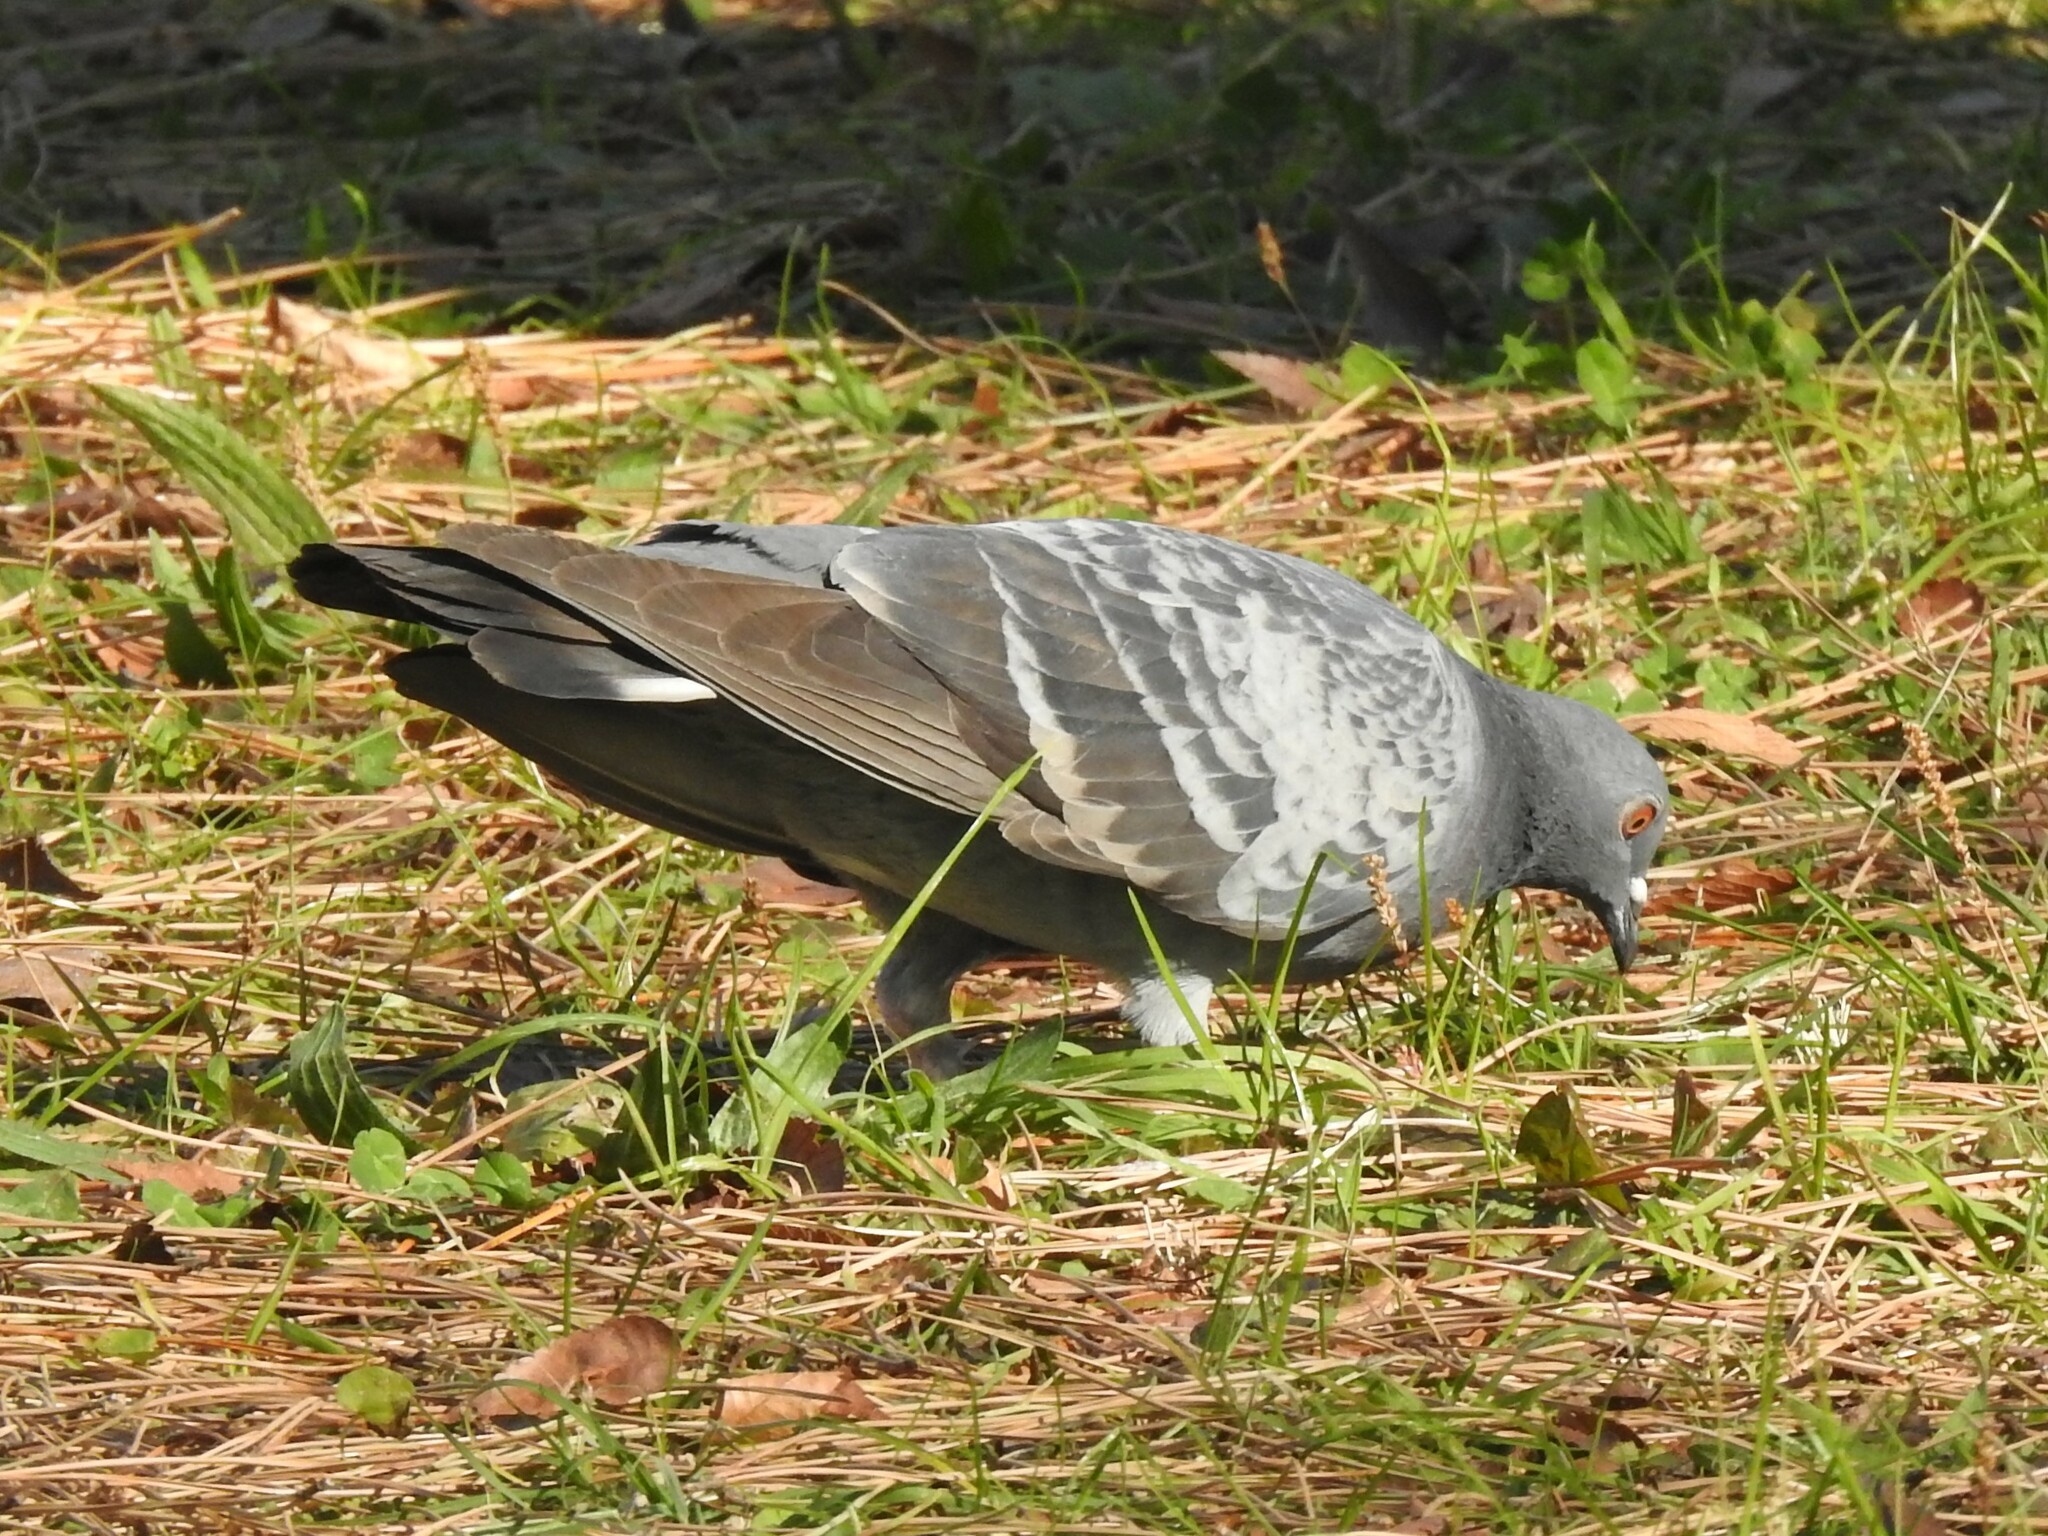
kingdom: Animalia
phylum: Chordata
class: Aves
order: Columbiformes
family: Columbidae
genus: Columba
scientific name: Columba livia
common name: Rock pigeon
